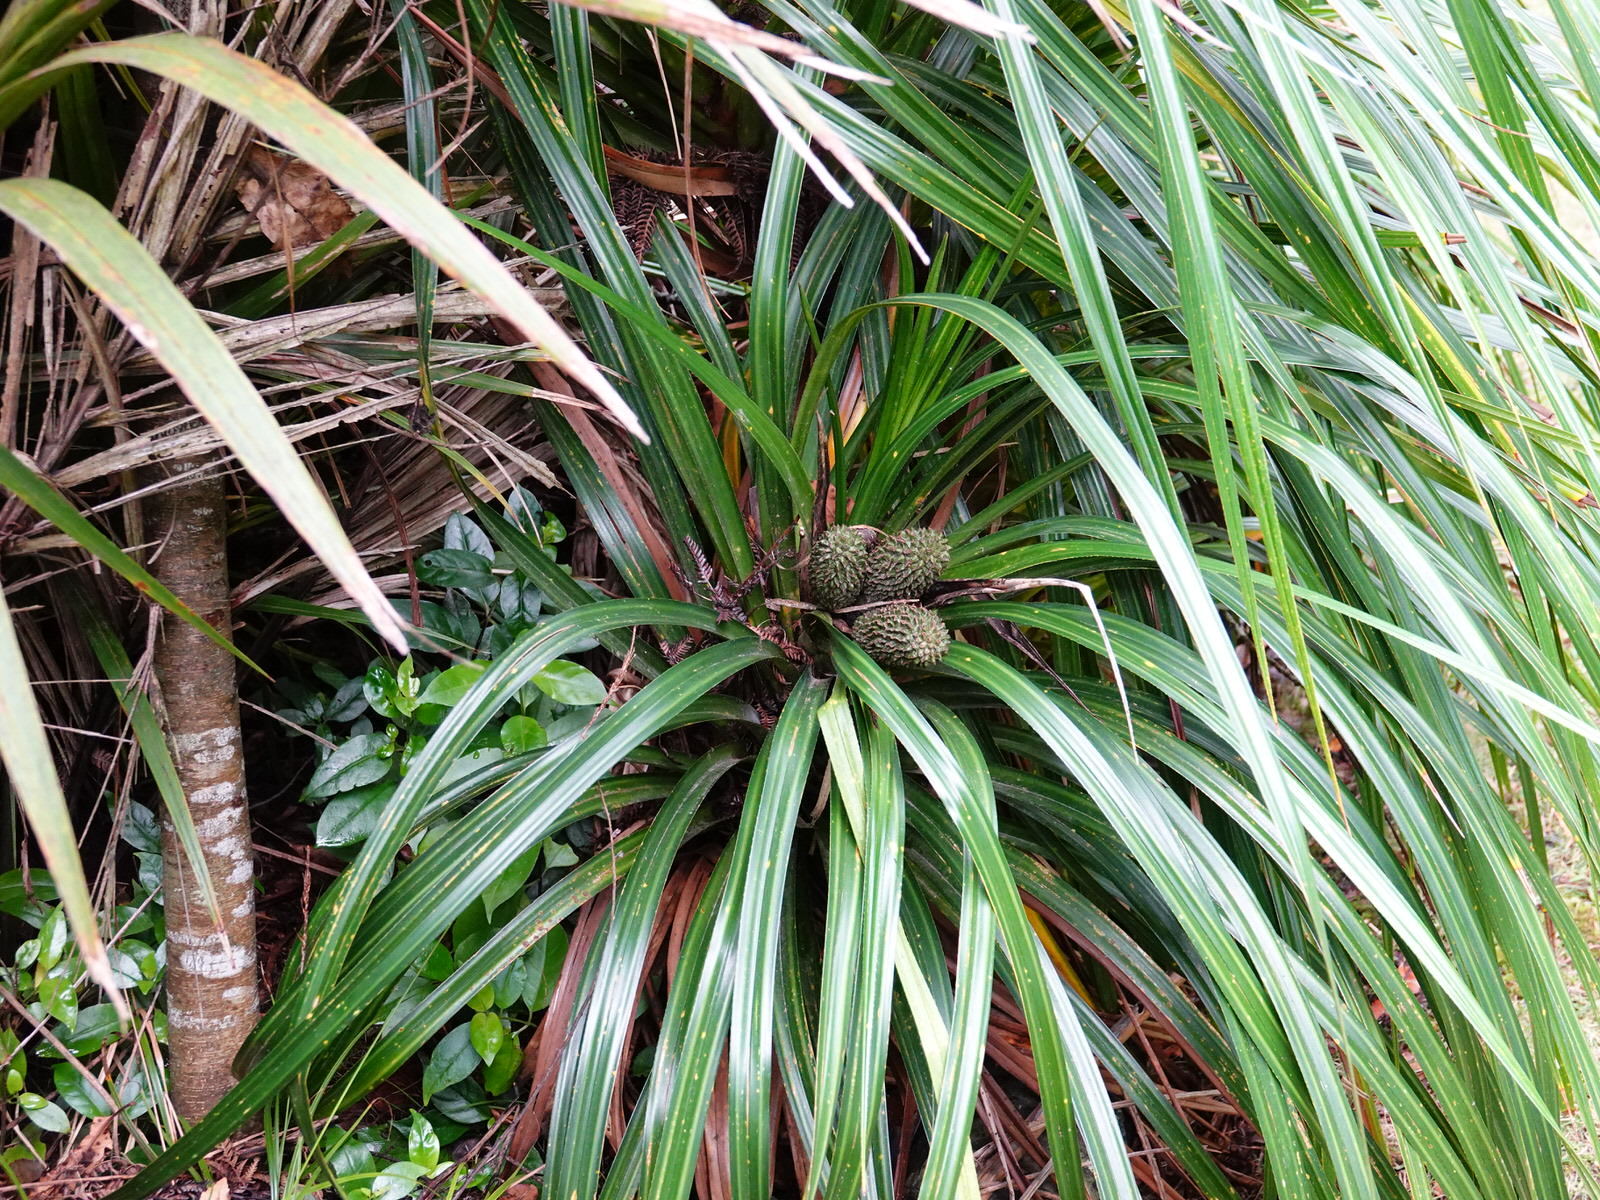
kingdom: Plantae
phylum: Tracheophyta
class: Liliopsida
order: Pandanales
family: Pandanaceae
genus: Freycinetia
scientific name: Freycinetia banksii
